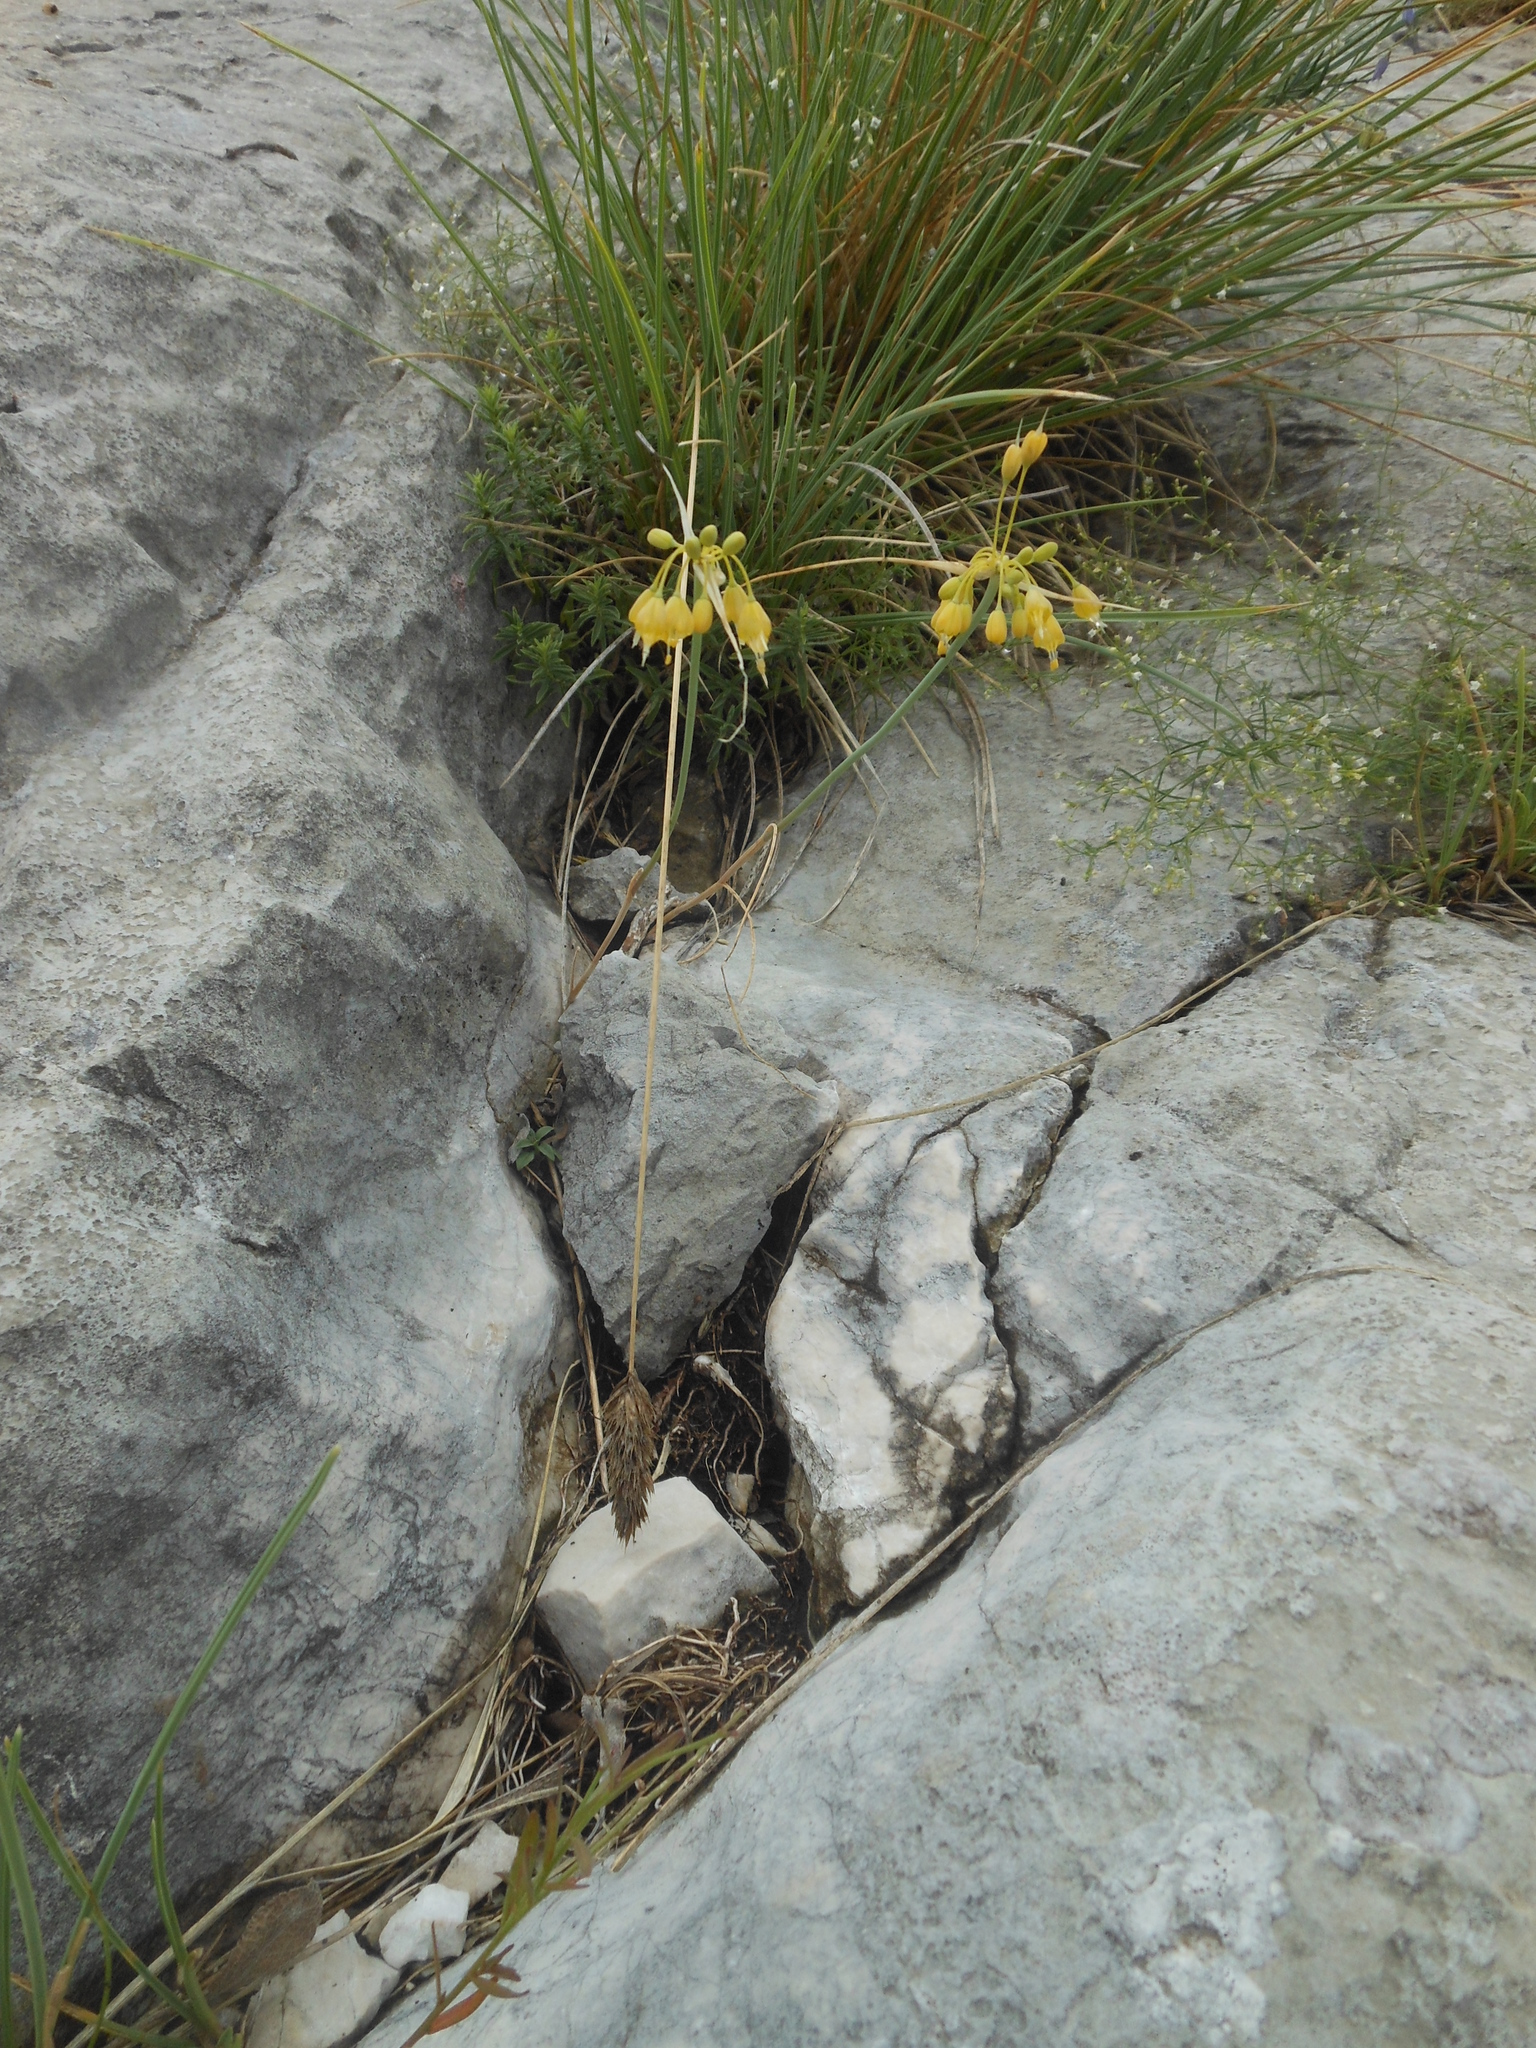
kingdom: Plantae
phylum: Tracheophyta
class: Liliopsida
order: Asparagales
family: Amaryllidaceae
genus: Allium
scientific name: Allium flavum
